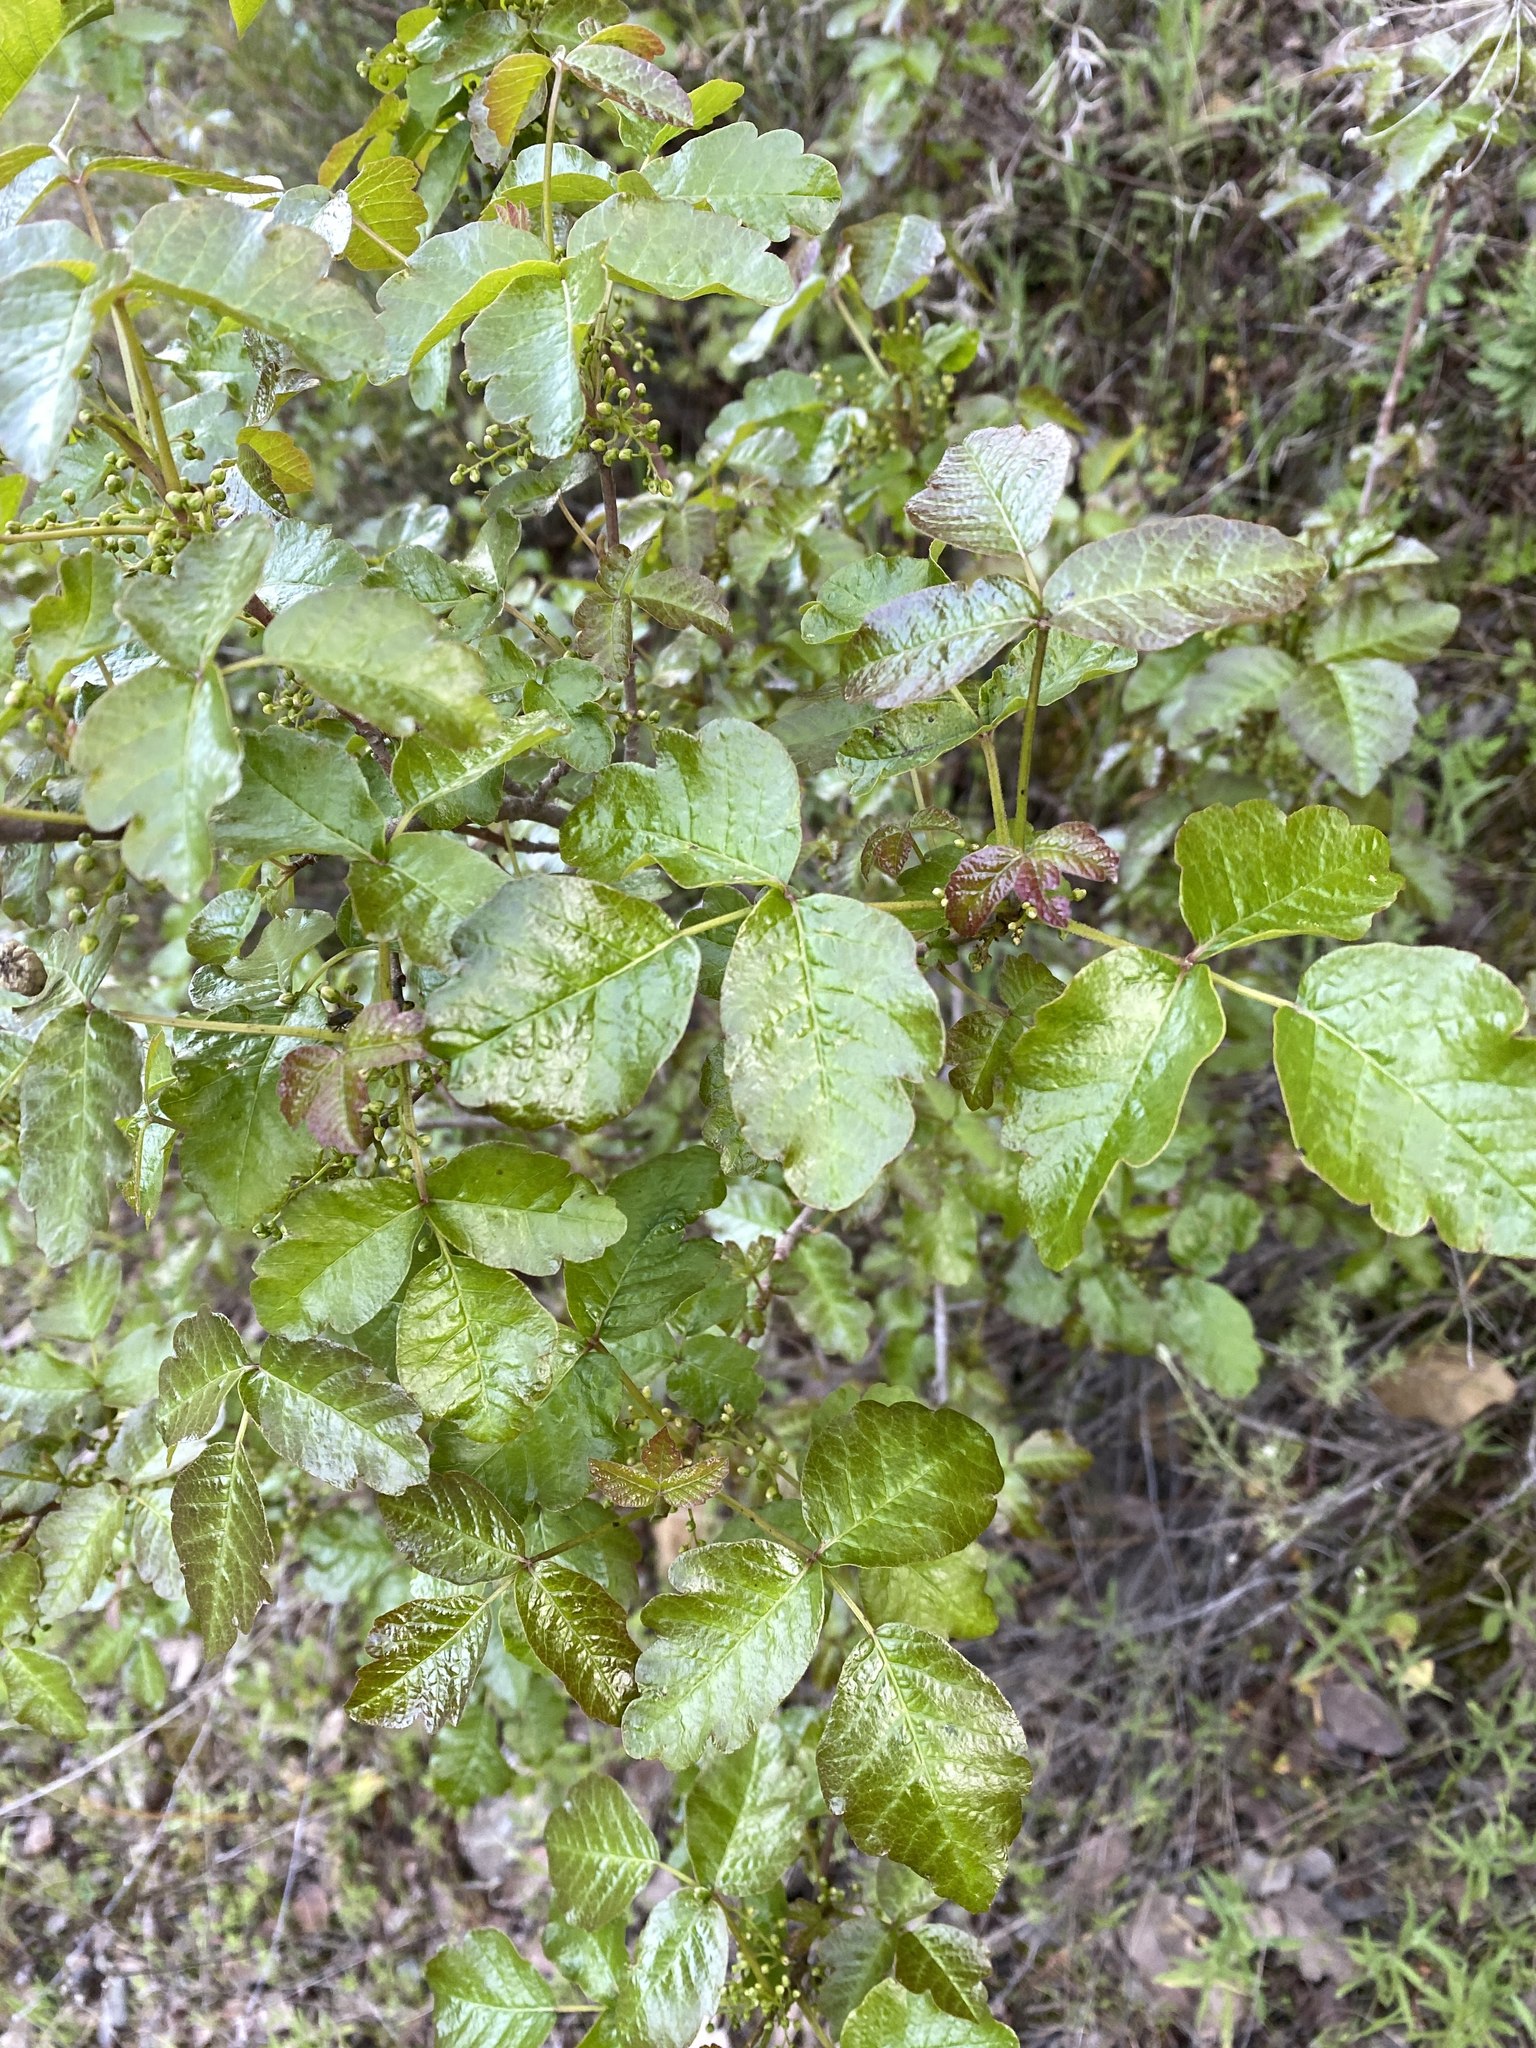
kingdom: Plantae
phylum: Tracheophyta
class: Magnoliopsida
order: Sapindales
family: Anacardiaceae
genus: Toxicodendron
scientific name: Toxicodendron diversilobum
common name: Pacific poison-oak
